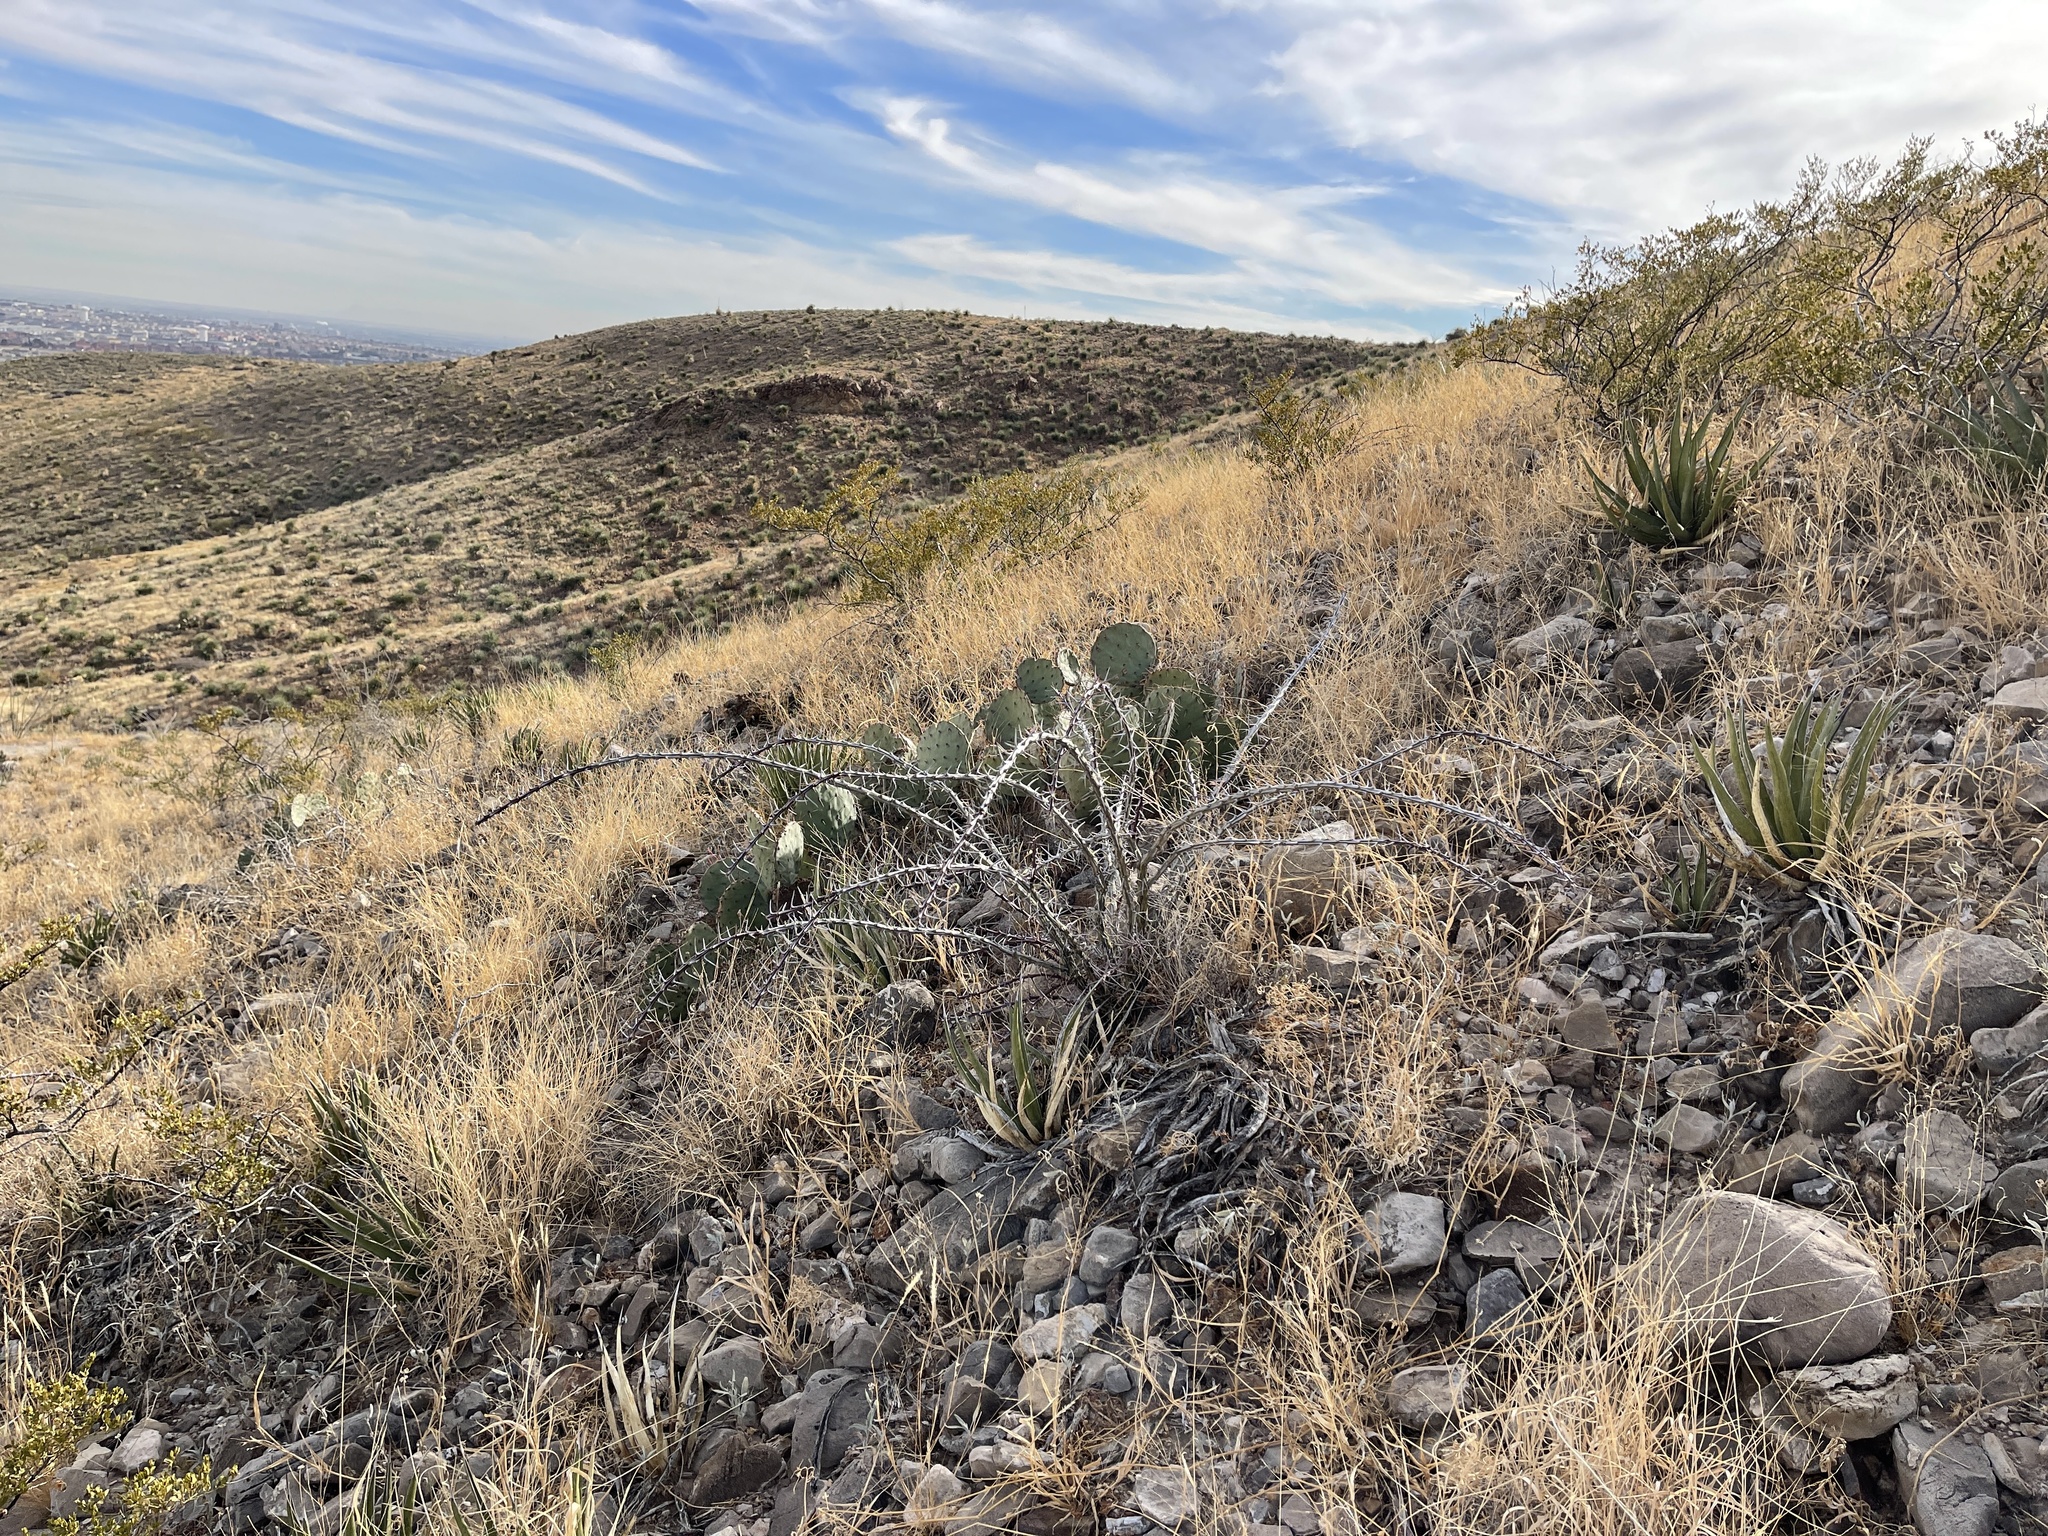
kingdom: Plantae
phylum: Tracheophyta
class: Magnoliopsida
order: Ericales
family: Fouquieriaceae
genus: Fouquieria
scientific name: Fouquieria splendens
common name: Vine-cactus
